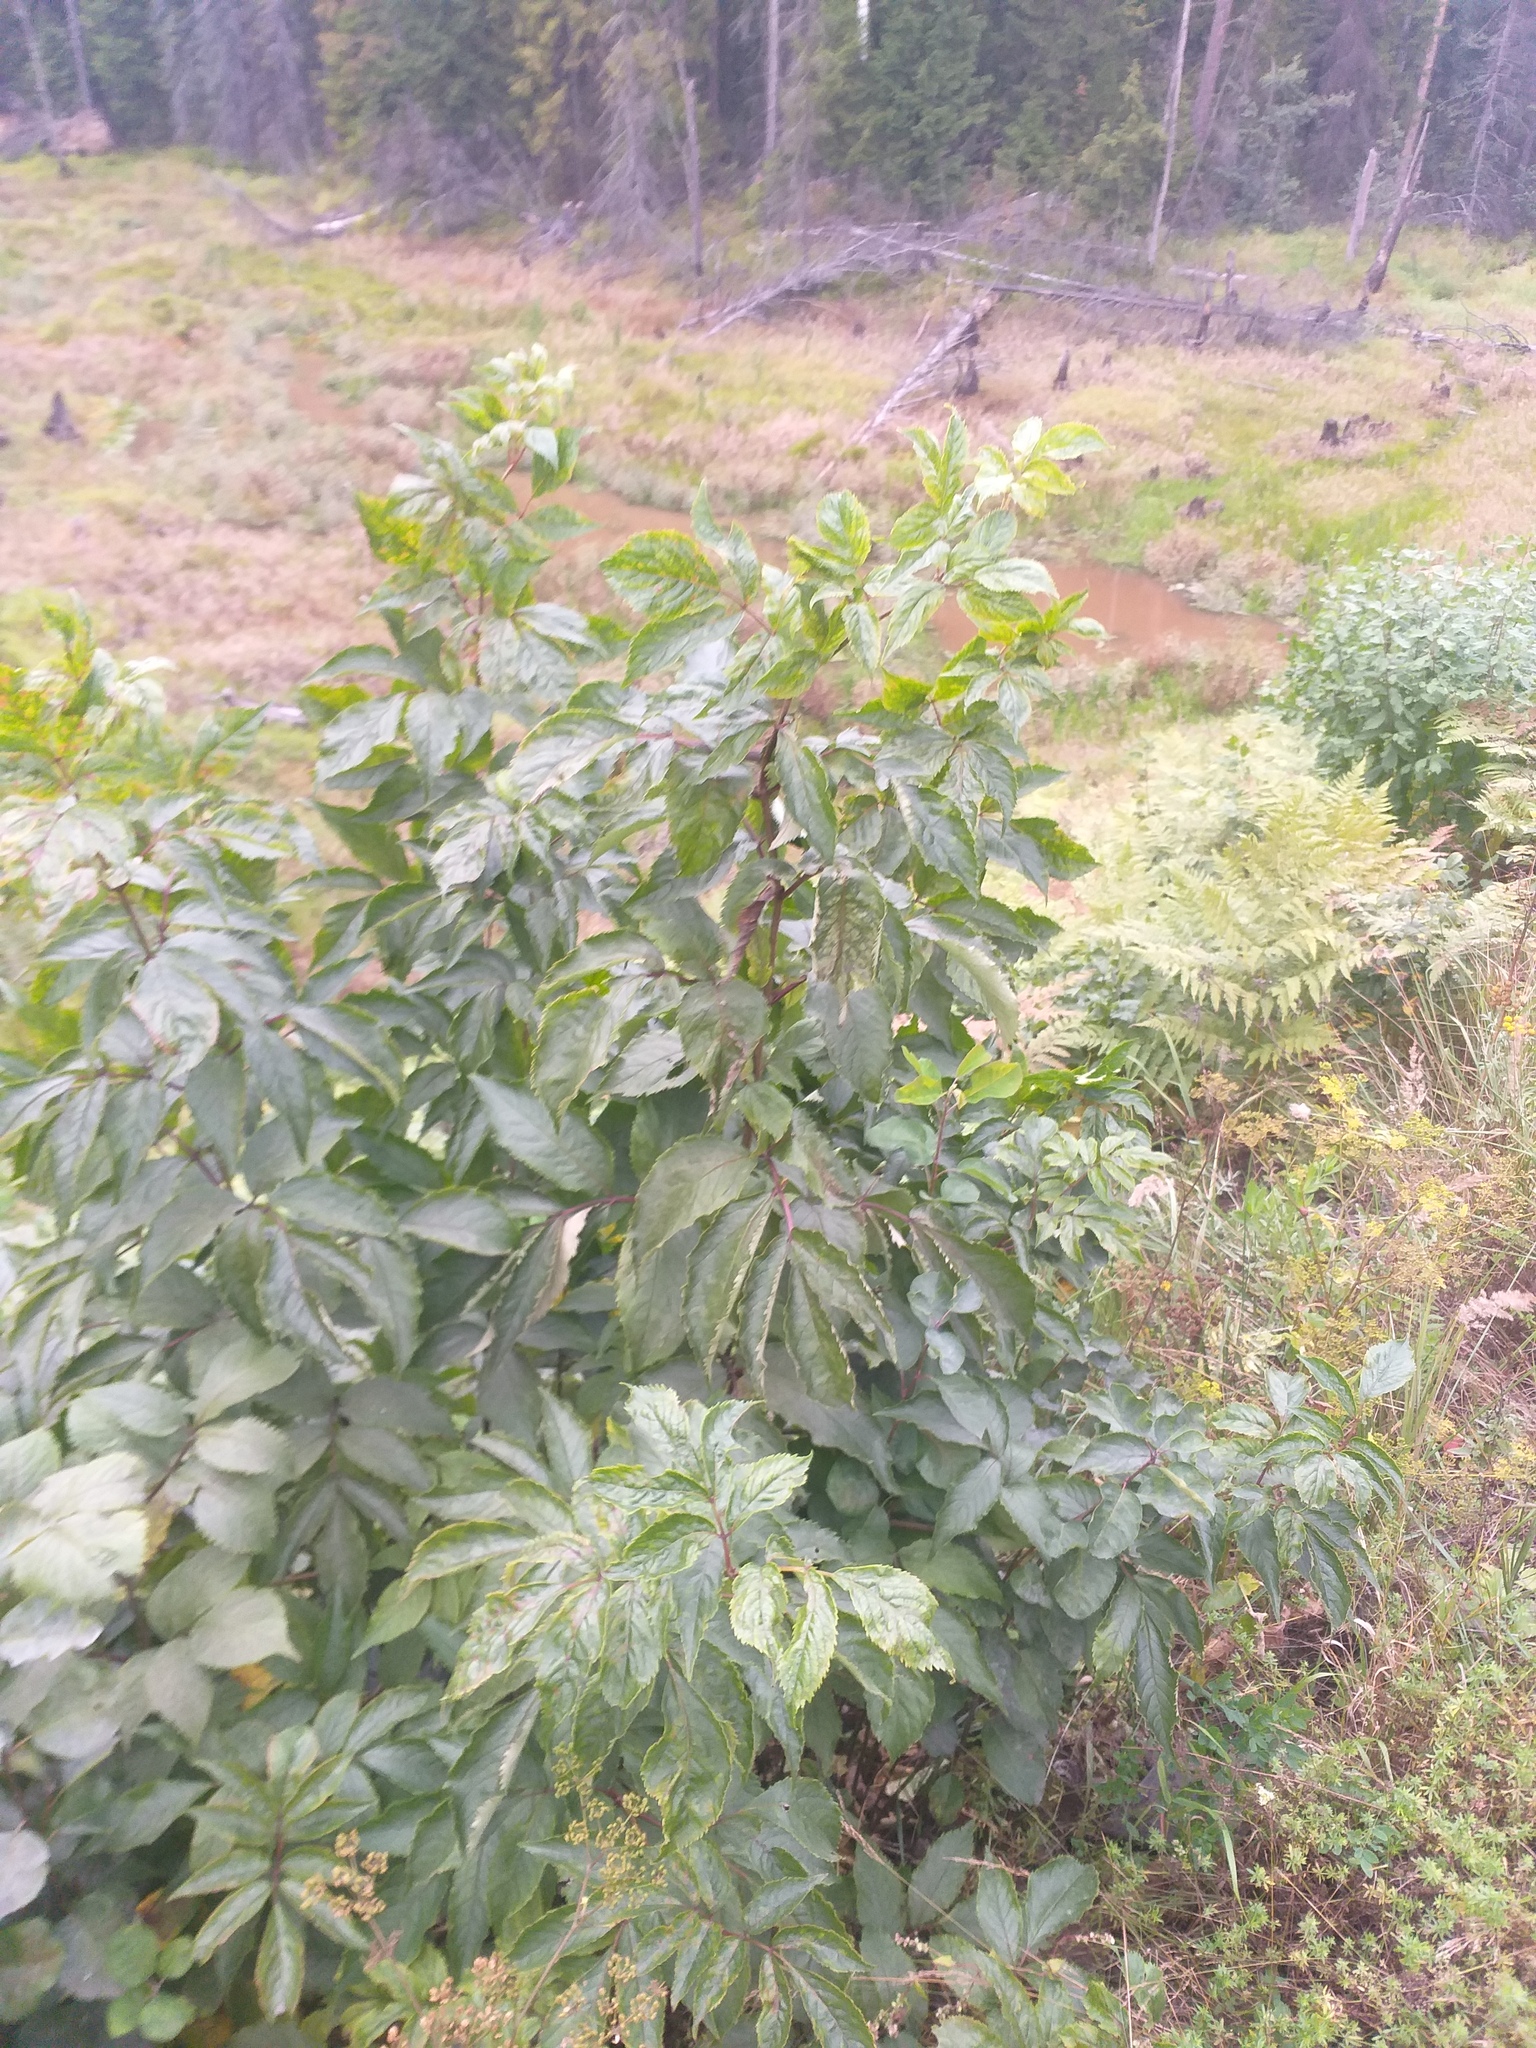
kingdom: Plantae
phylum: Tracheophyta
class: Magnoliopsida
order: Dipsacales
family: Viburnaceae
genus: Sambucus
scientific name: Sambucus racemosa
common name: Red-berried elder
